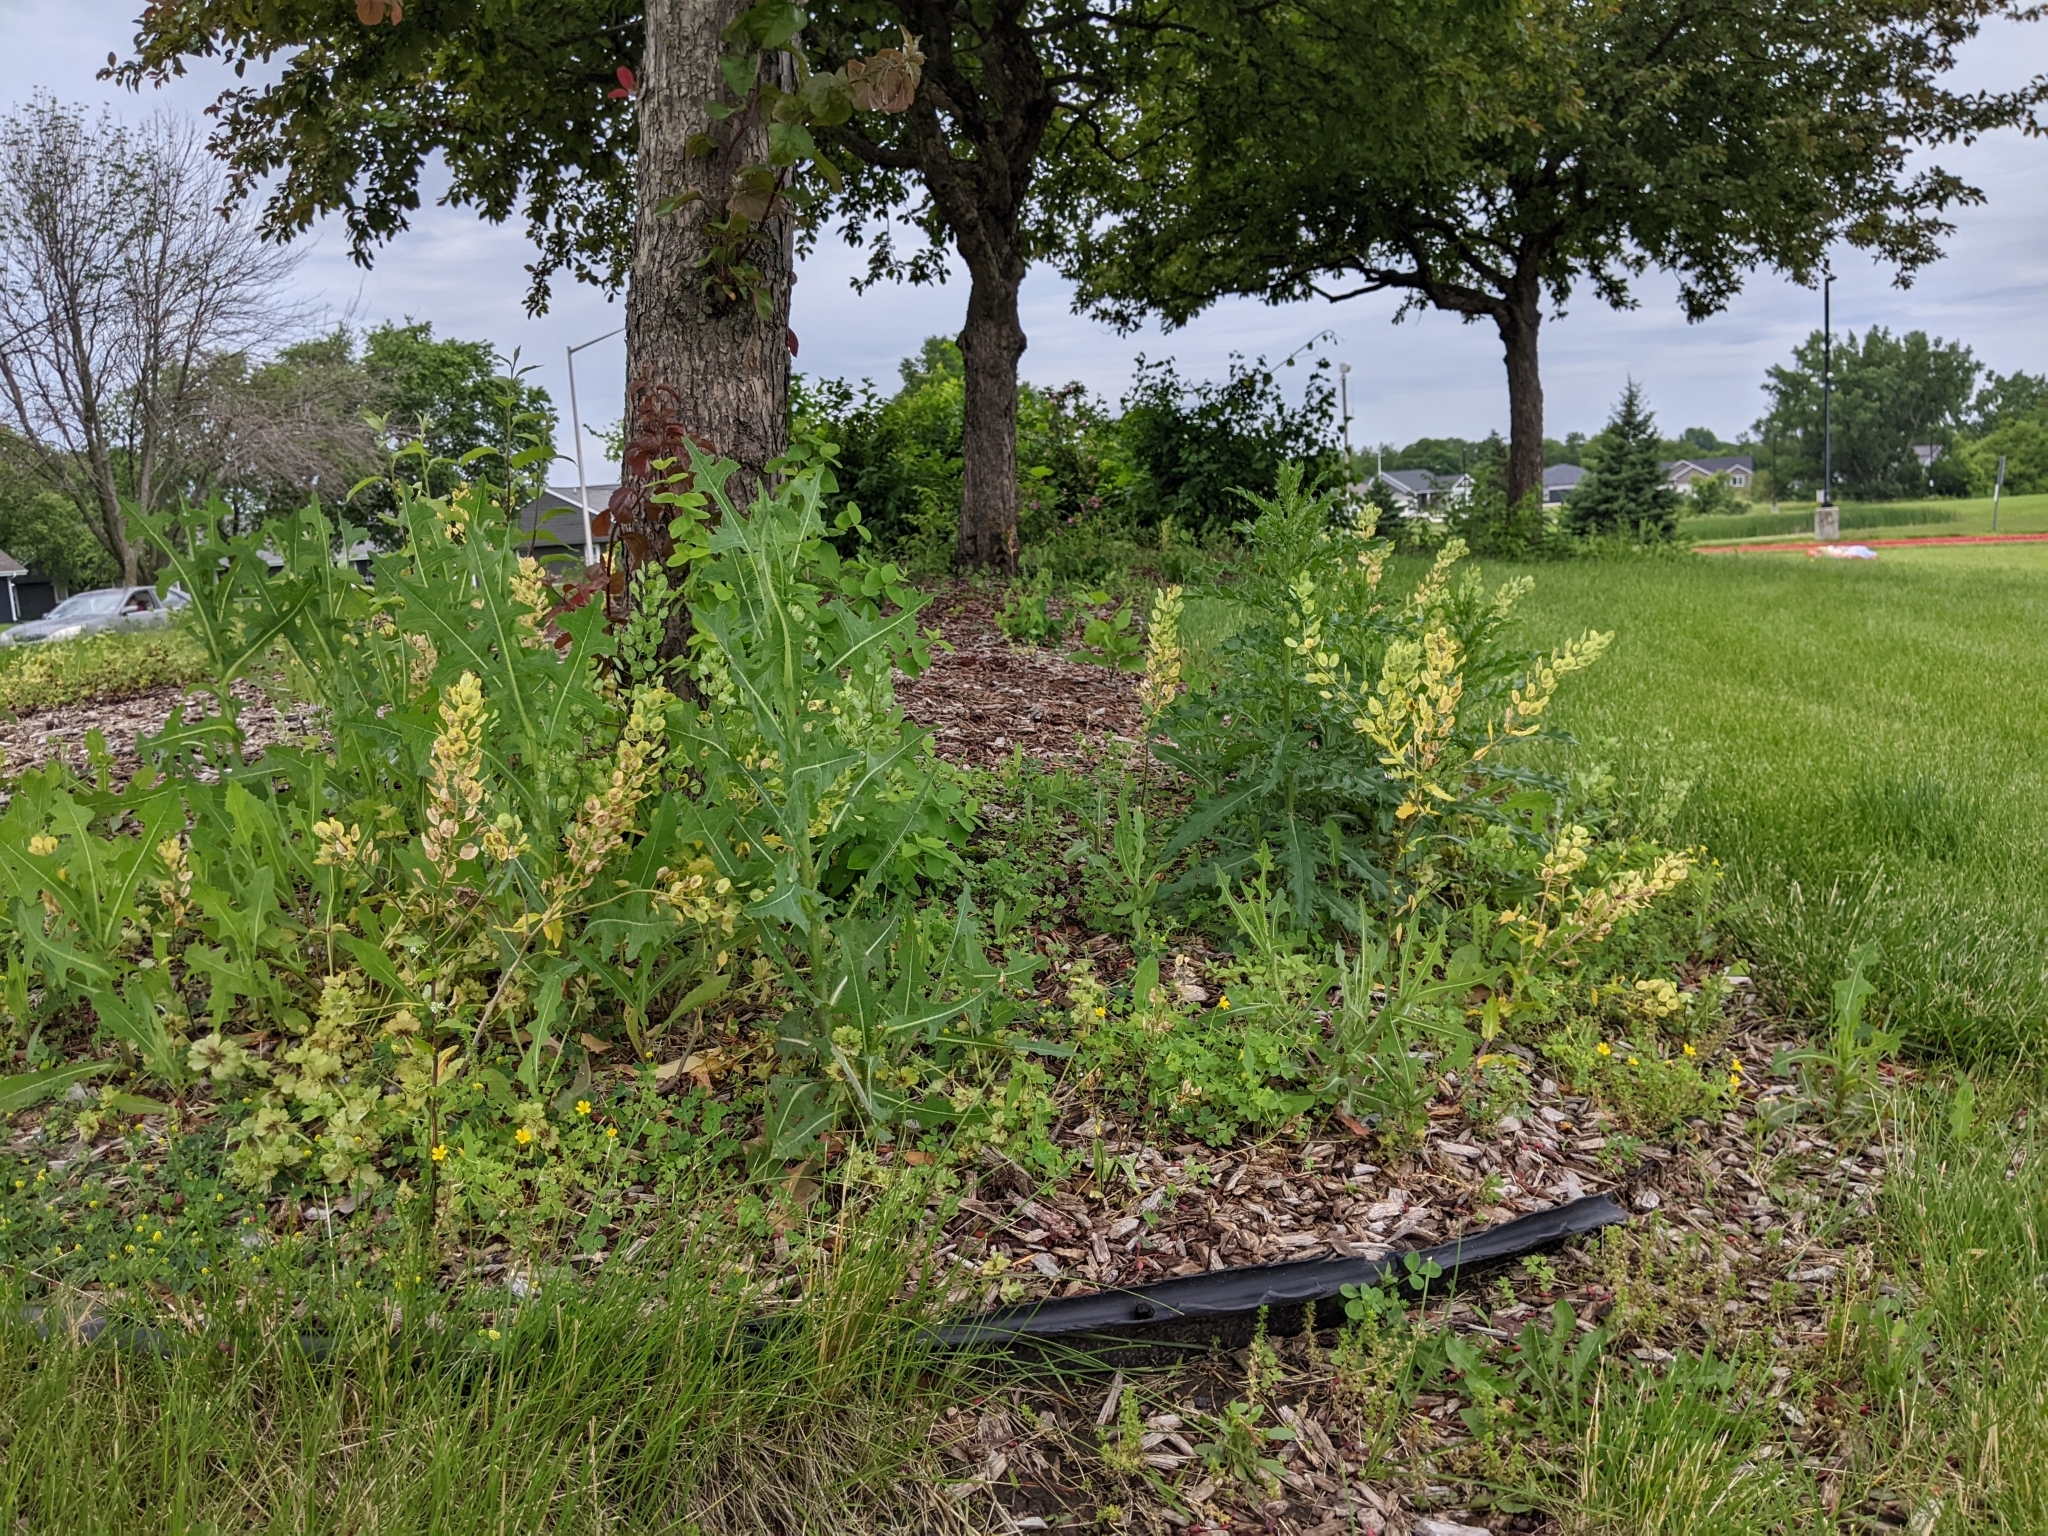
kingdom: Plantae
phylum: Tracheophyta
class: Magnoliopsida
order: Brassicales
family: Brassicaceae
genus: Thlaspi
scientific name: Thlaspi arvense
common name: Field pennycress
